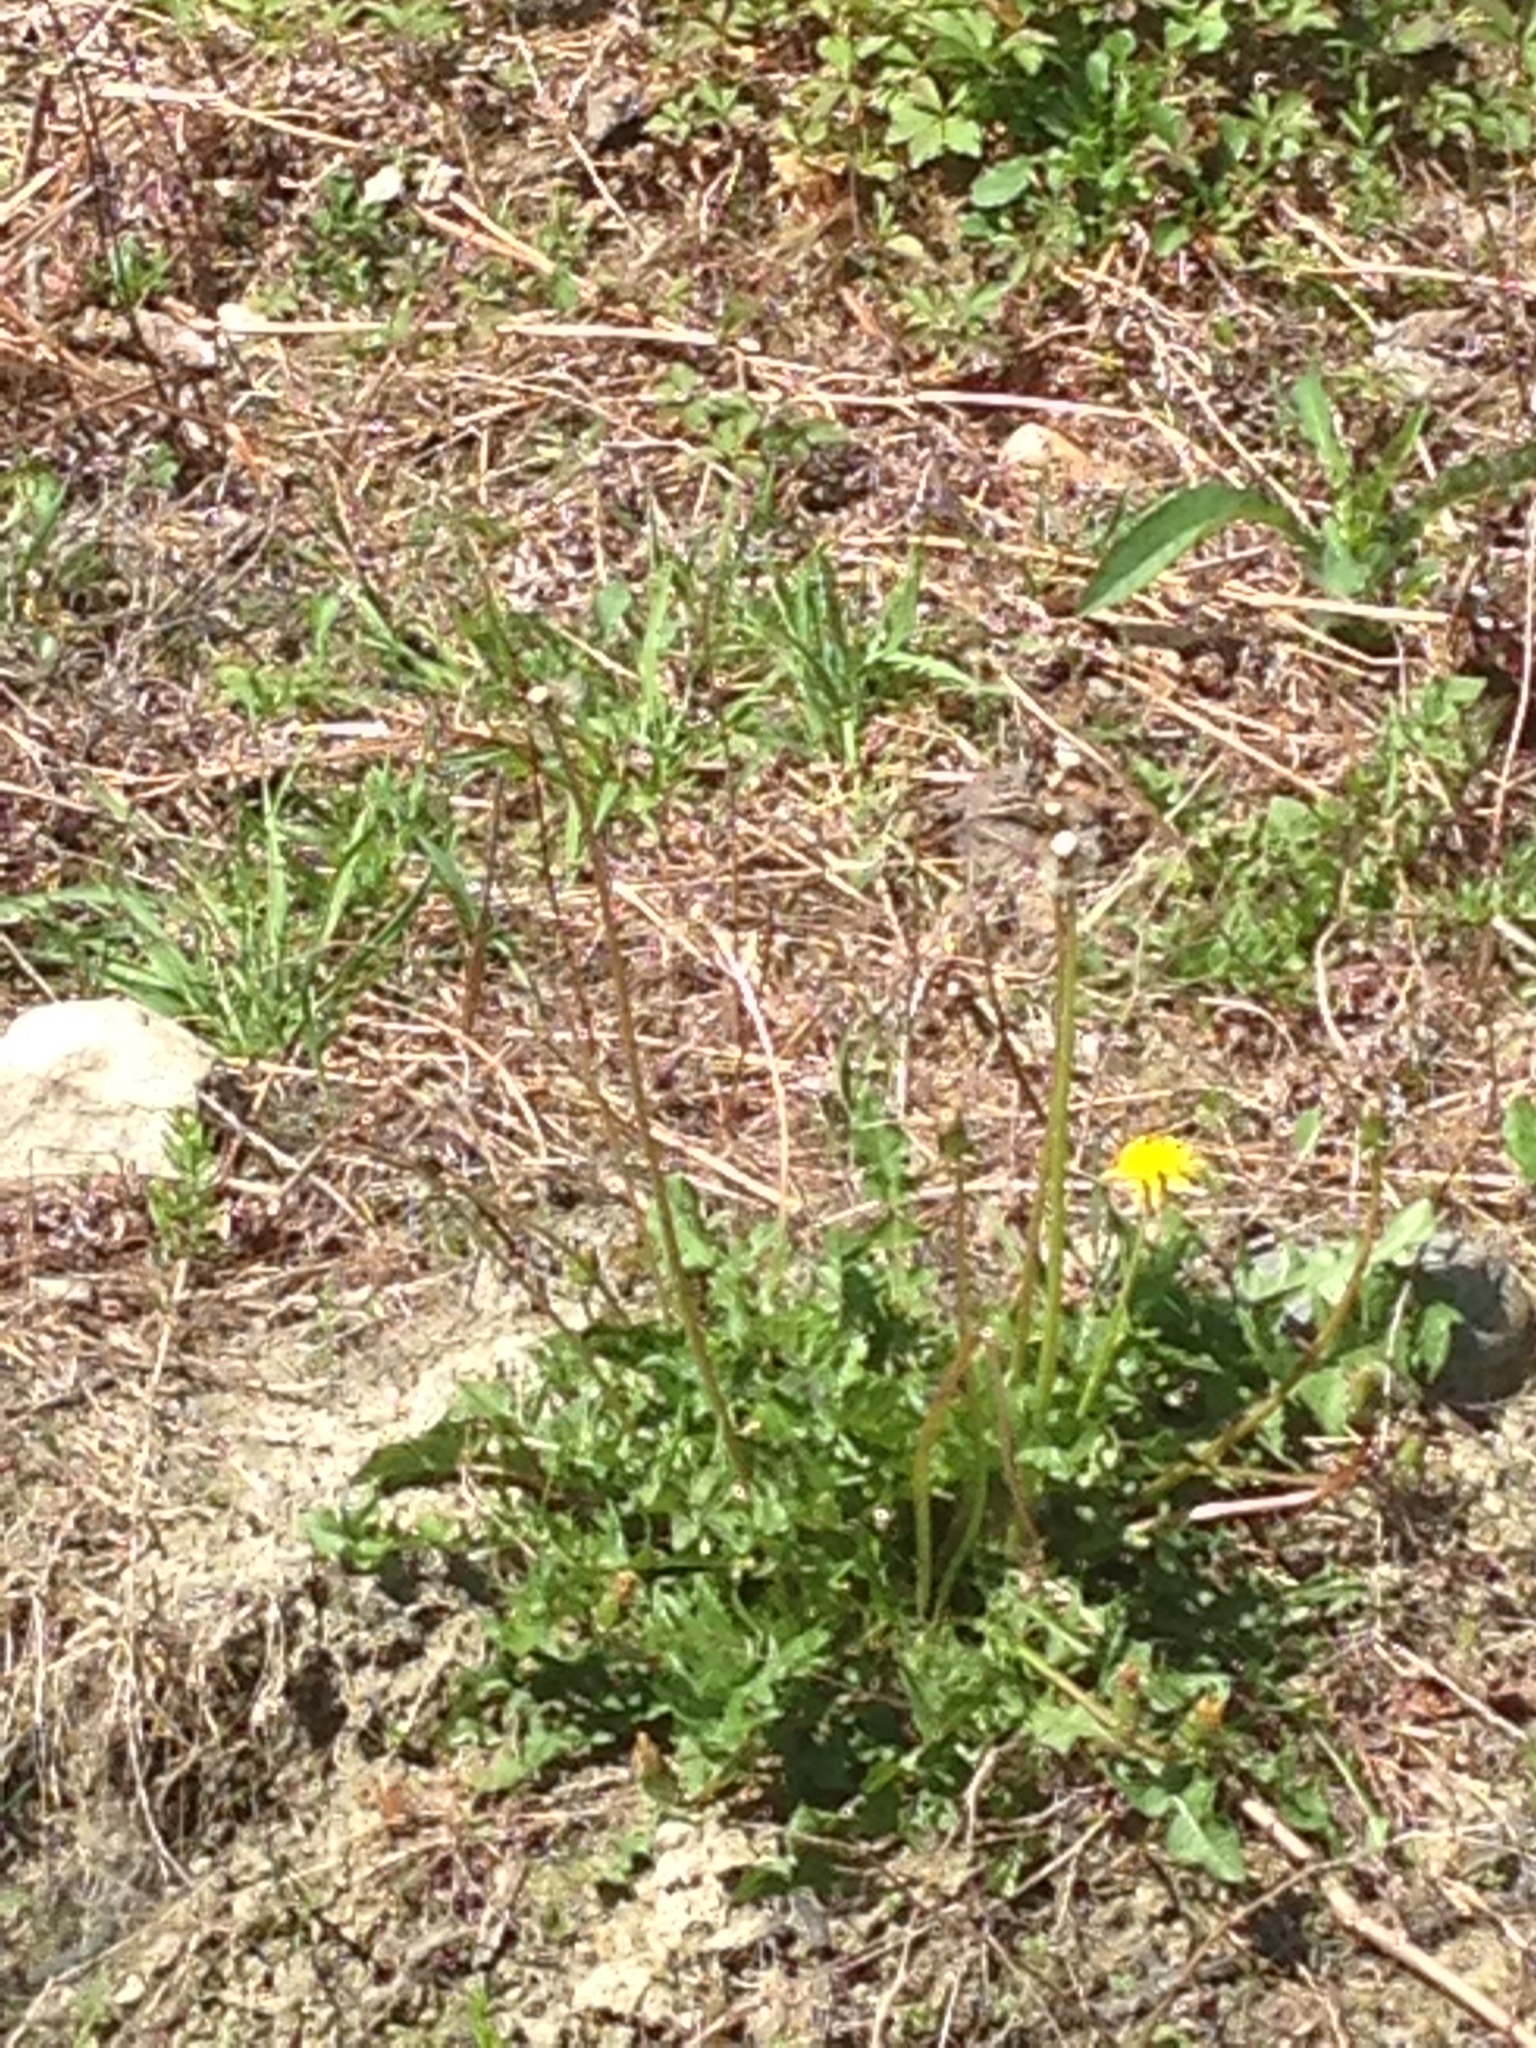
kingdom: Plantae
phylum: Tracheophyta
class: Magnoliopsida
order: Asterales
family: Asteraceae
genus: Taraxacum
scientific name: Taraxacum officinale
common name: Common dandelion
